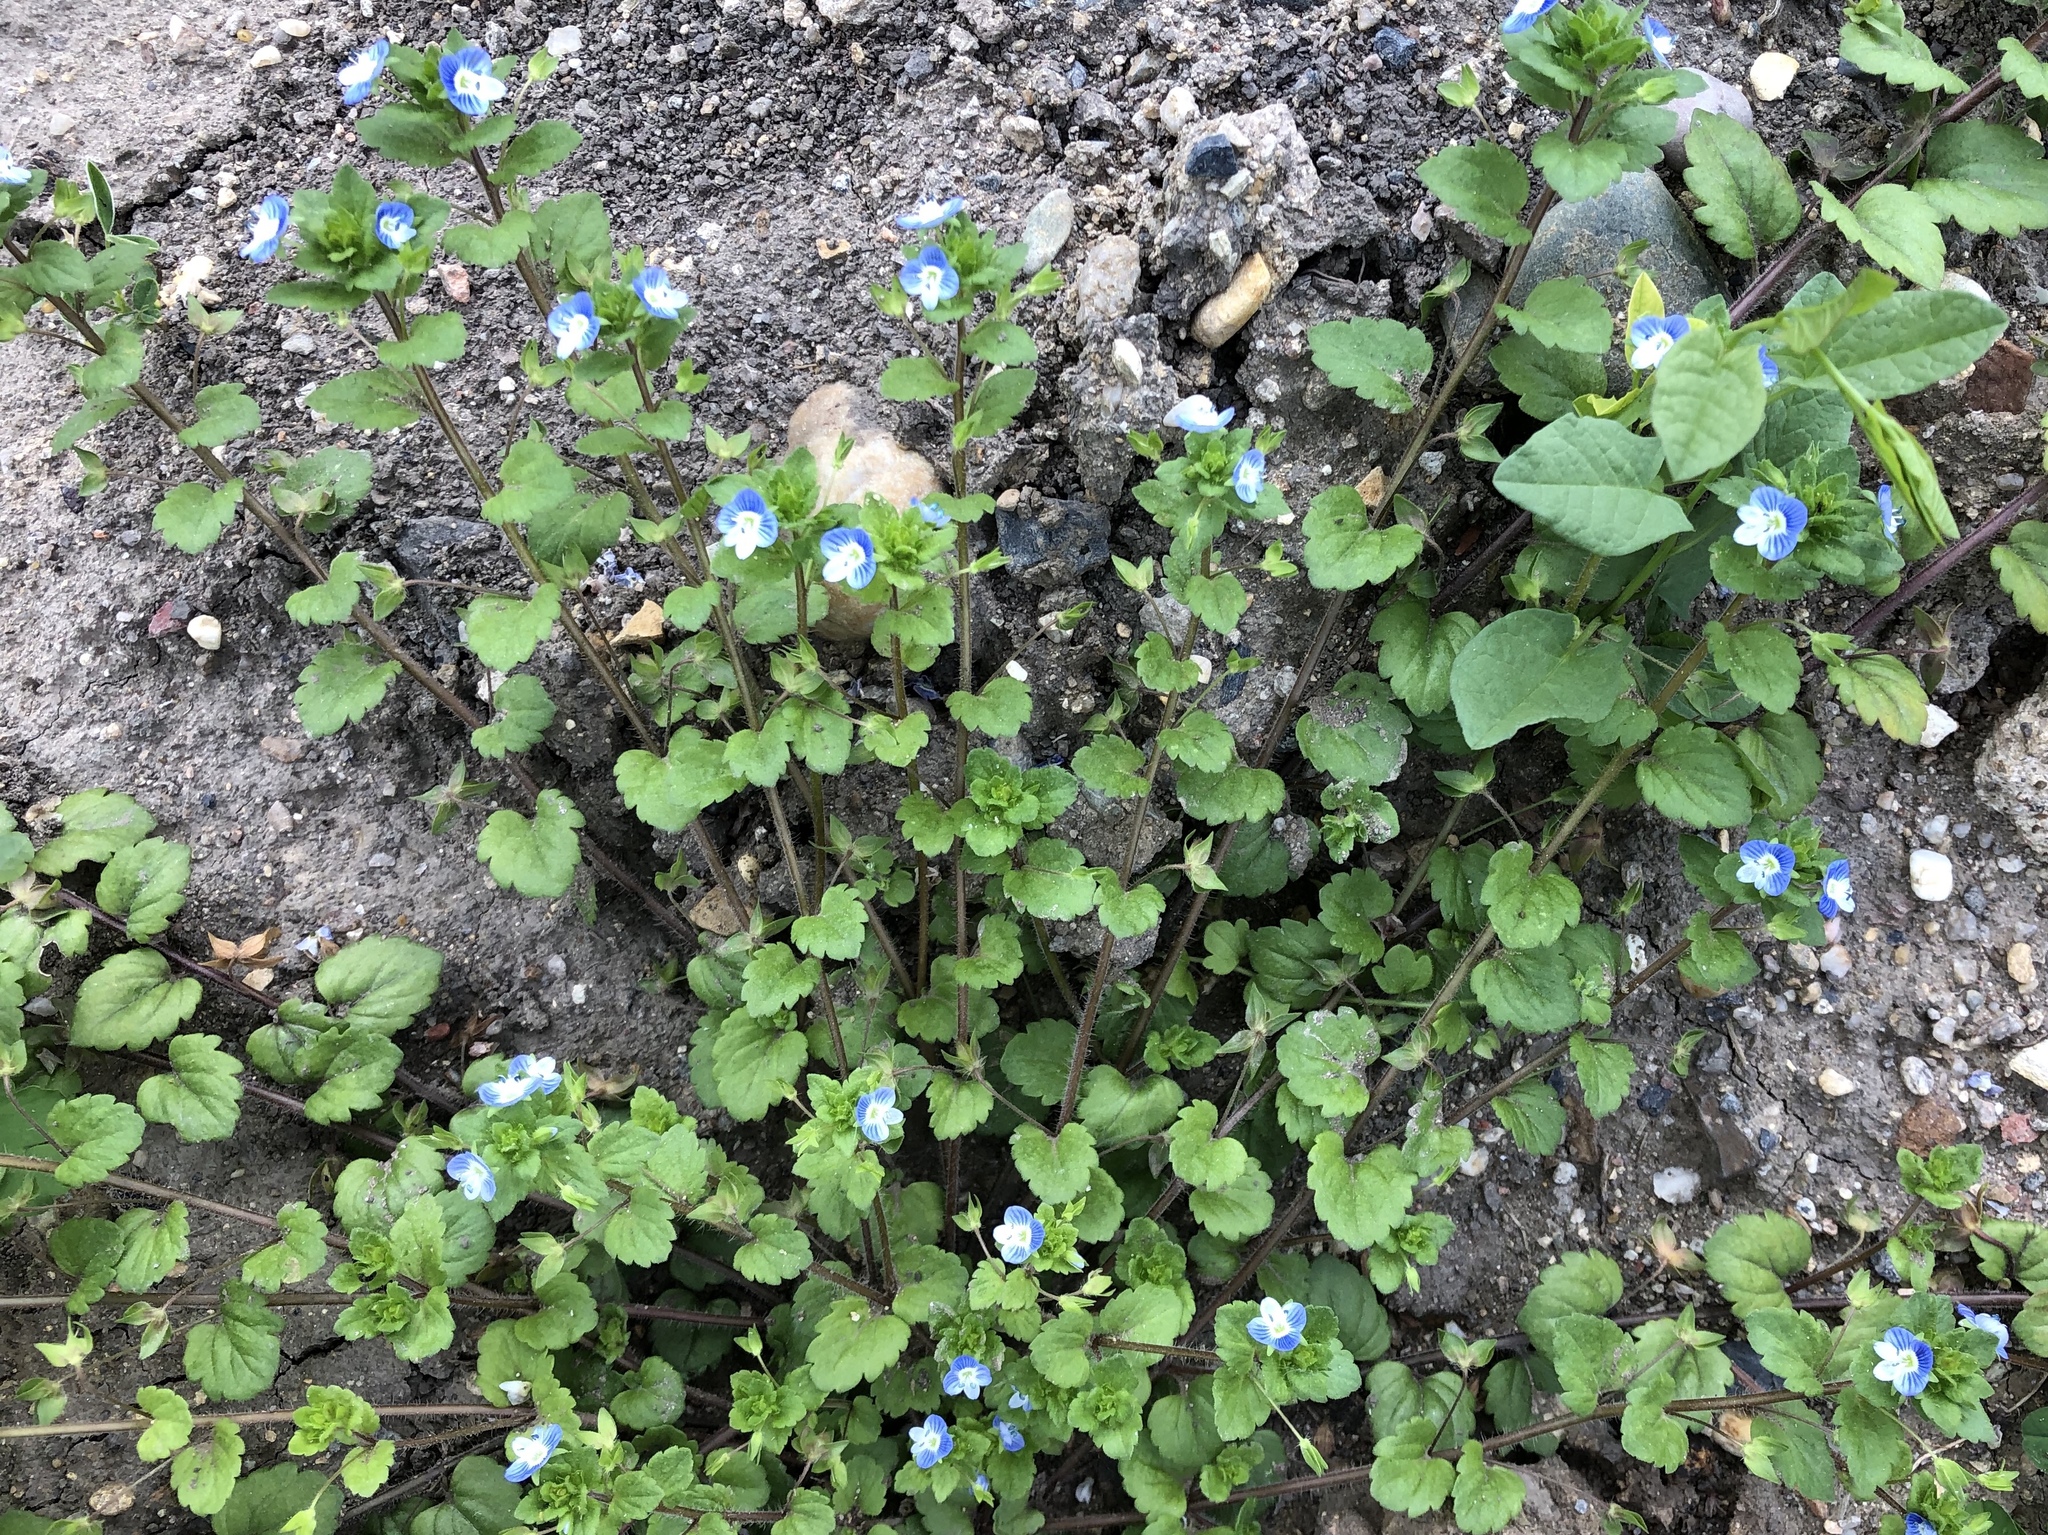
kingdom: Plantae
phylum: Tracheophyta
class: Magnoliopsida
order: Lamiales
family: Plantaginaceae
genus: Veronica
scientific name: Veronica persica
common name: Common field-speedwell
